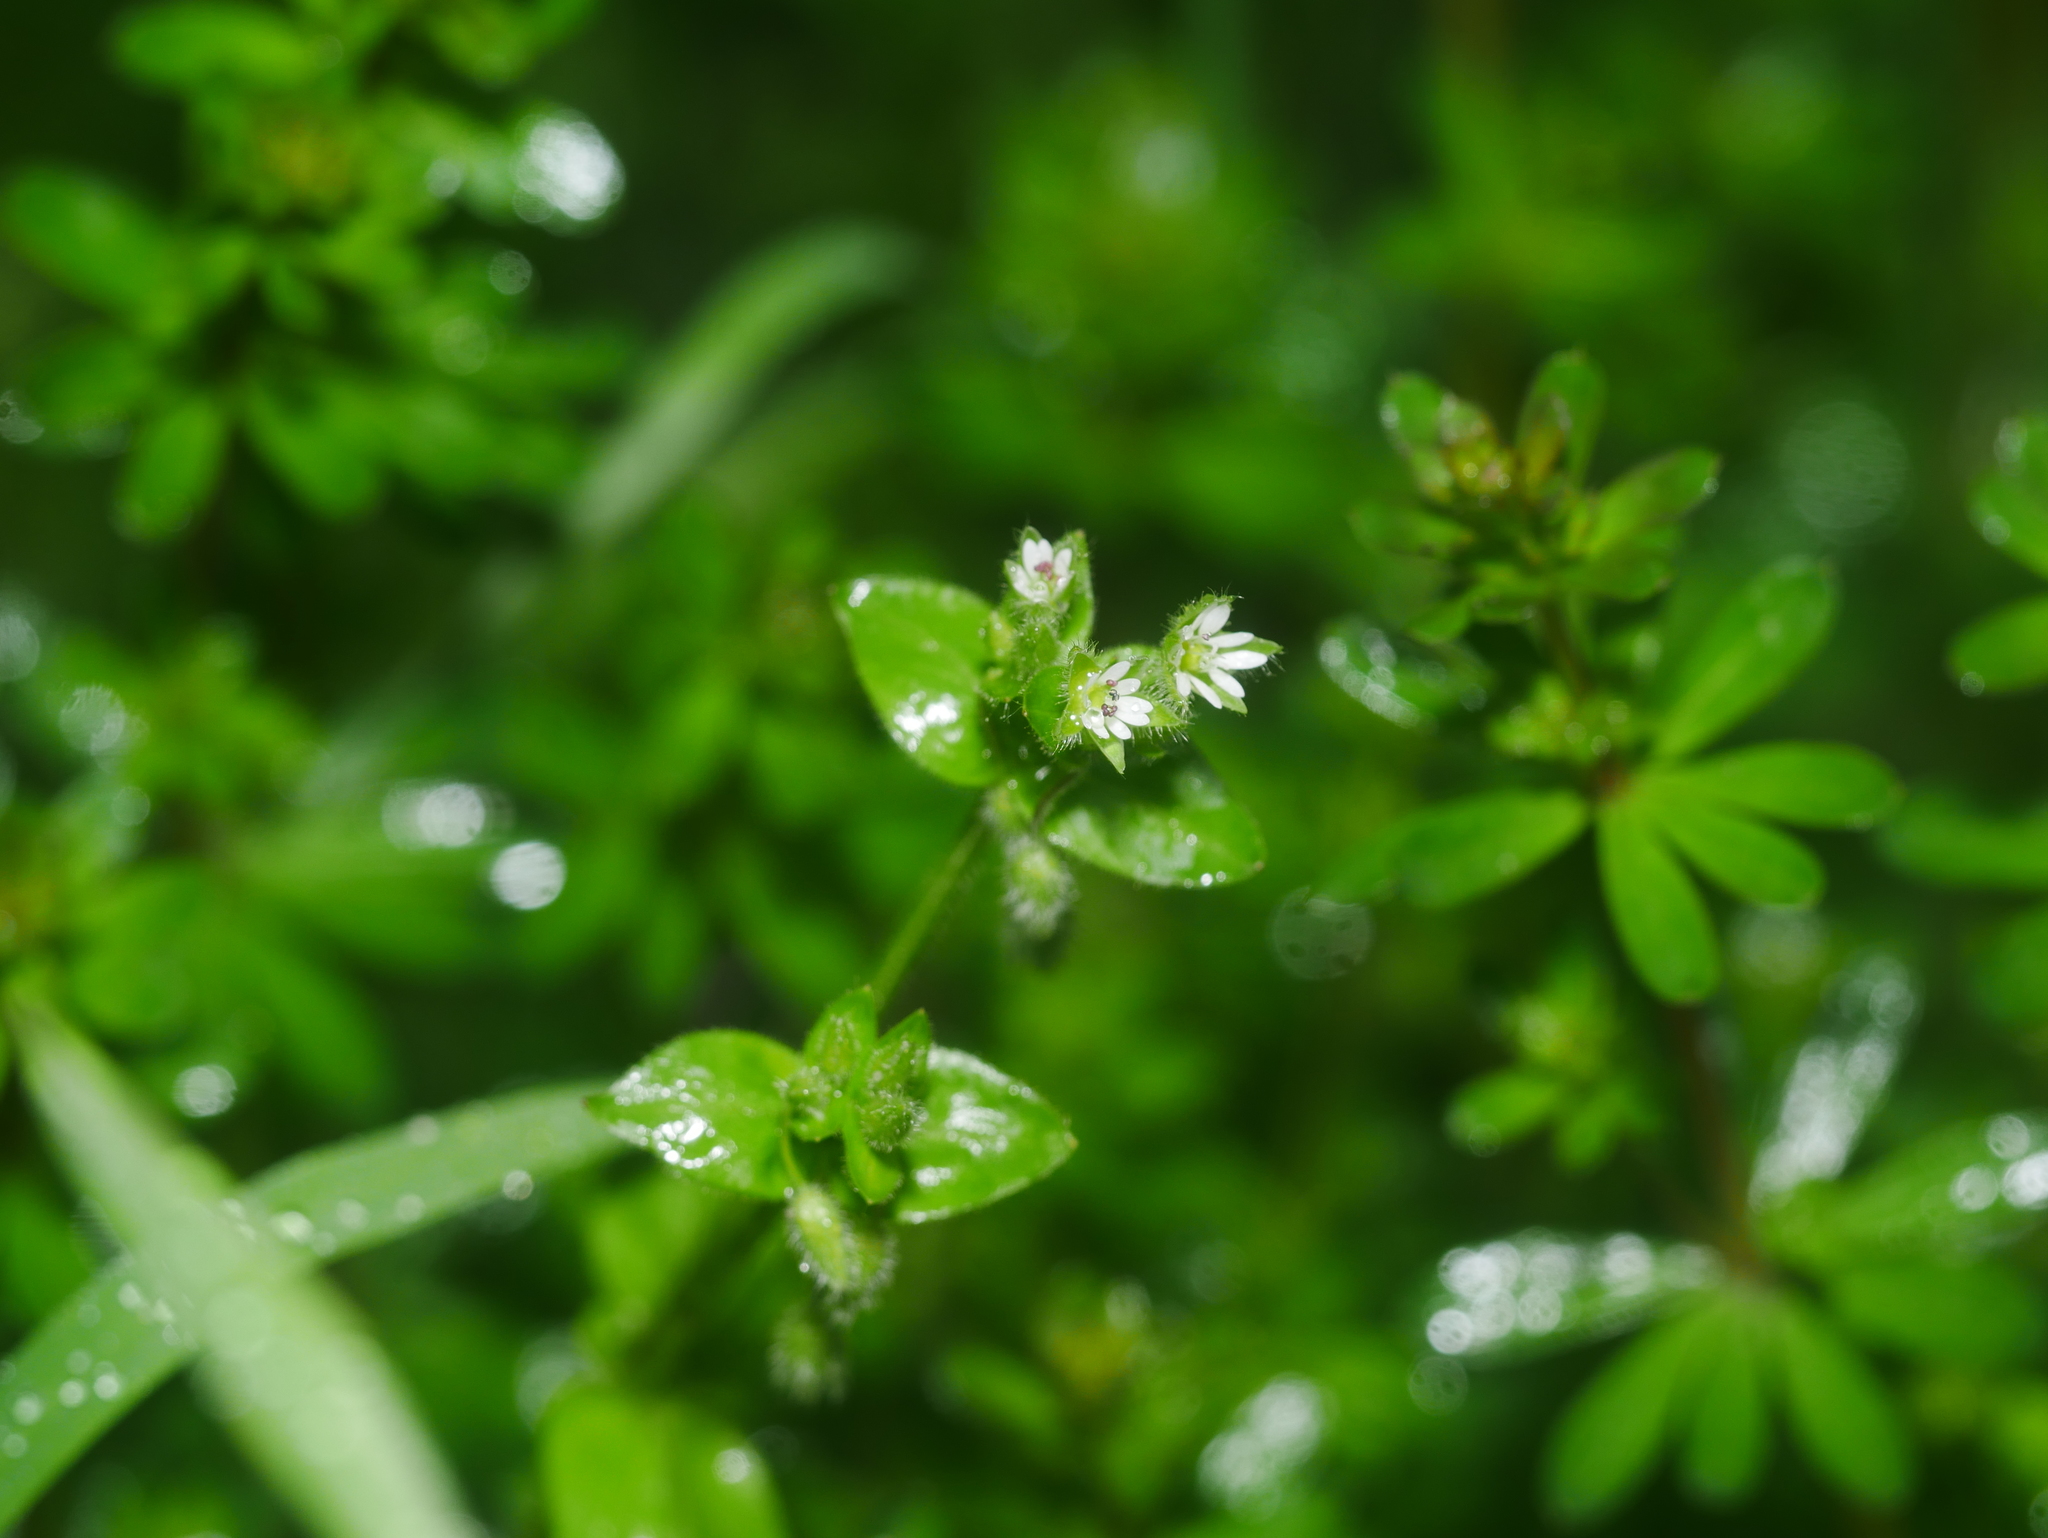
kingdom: Plantae
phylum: Tracheophyta
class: Magnoliopsida
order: Caryophyllales
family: Caryophyllaceae
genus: Stellaria
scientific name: Stellaria media
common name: Common chickweed
